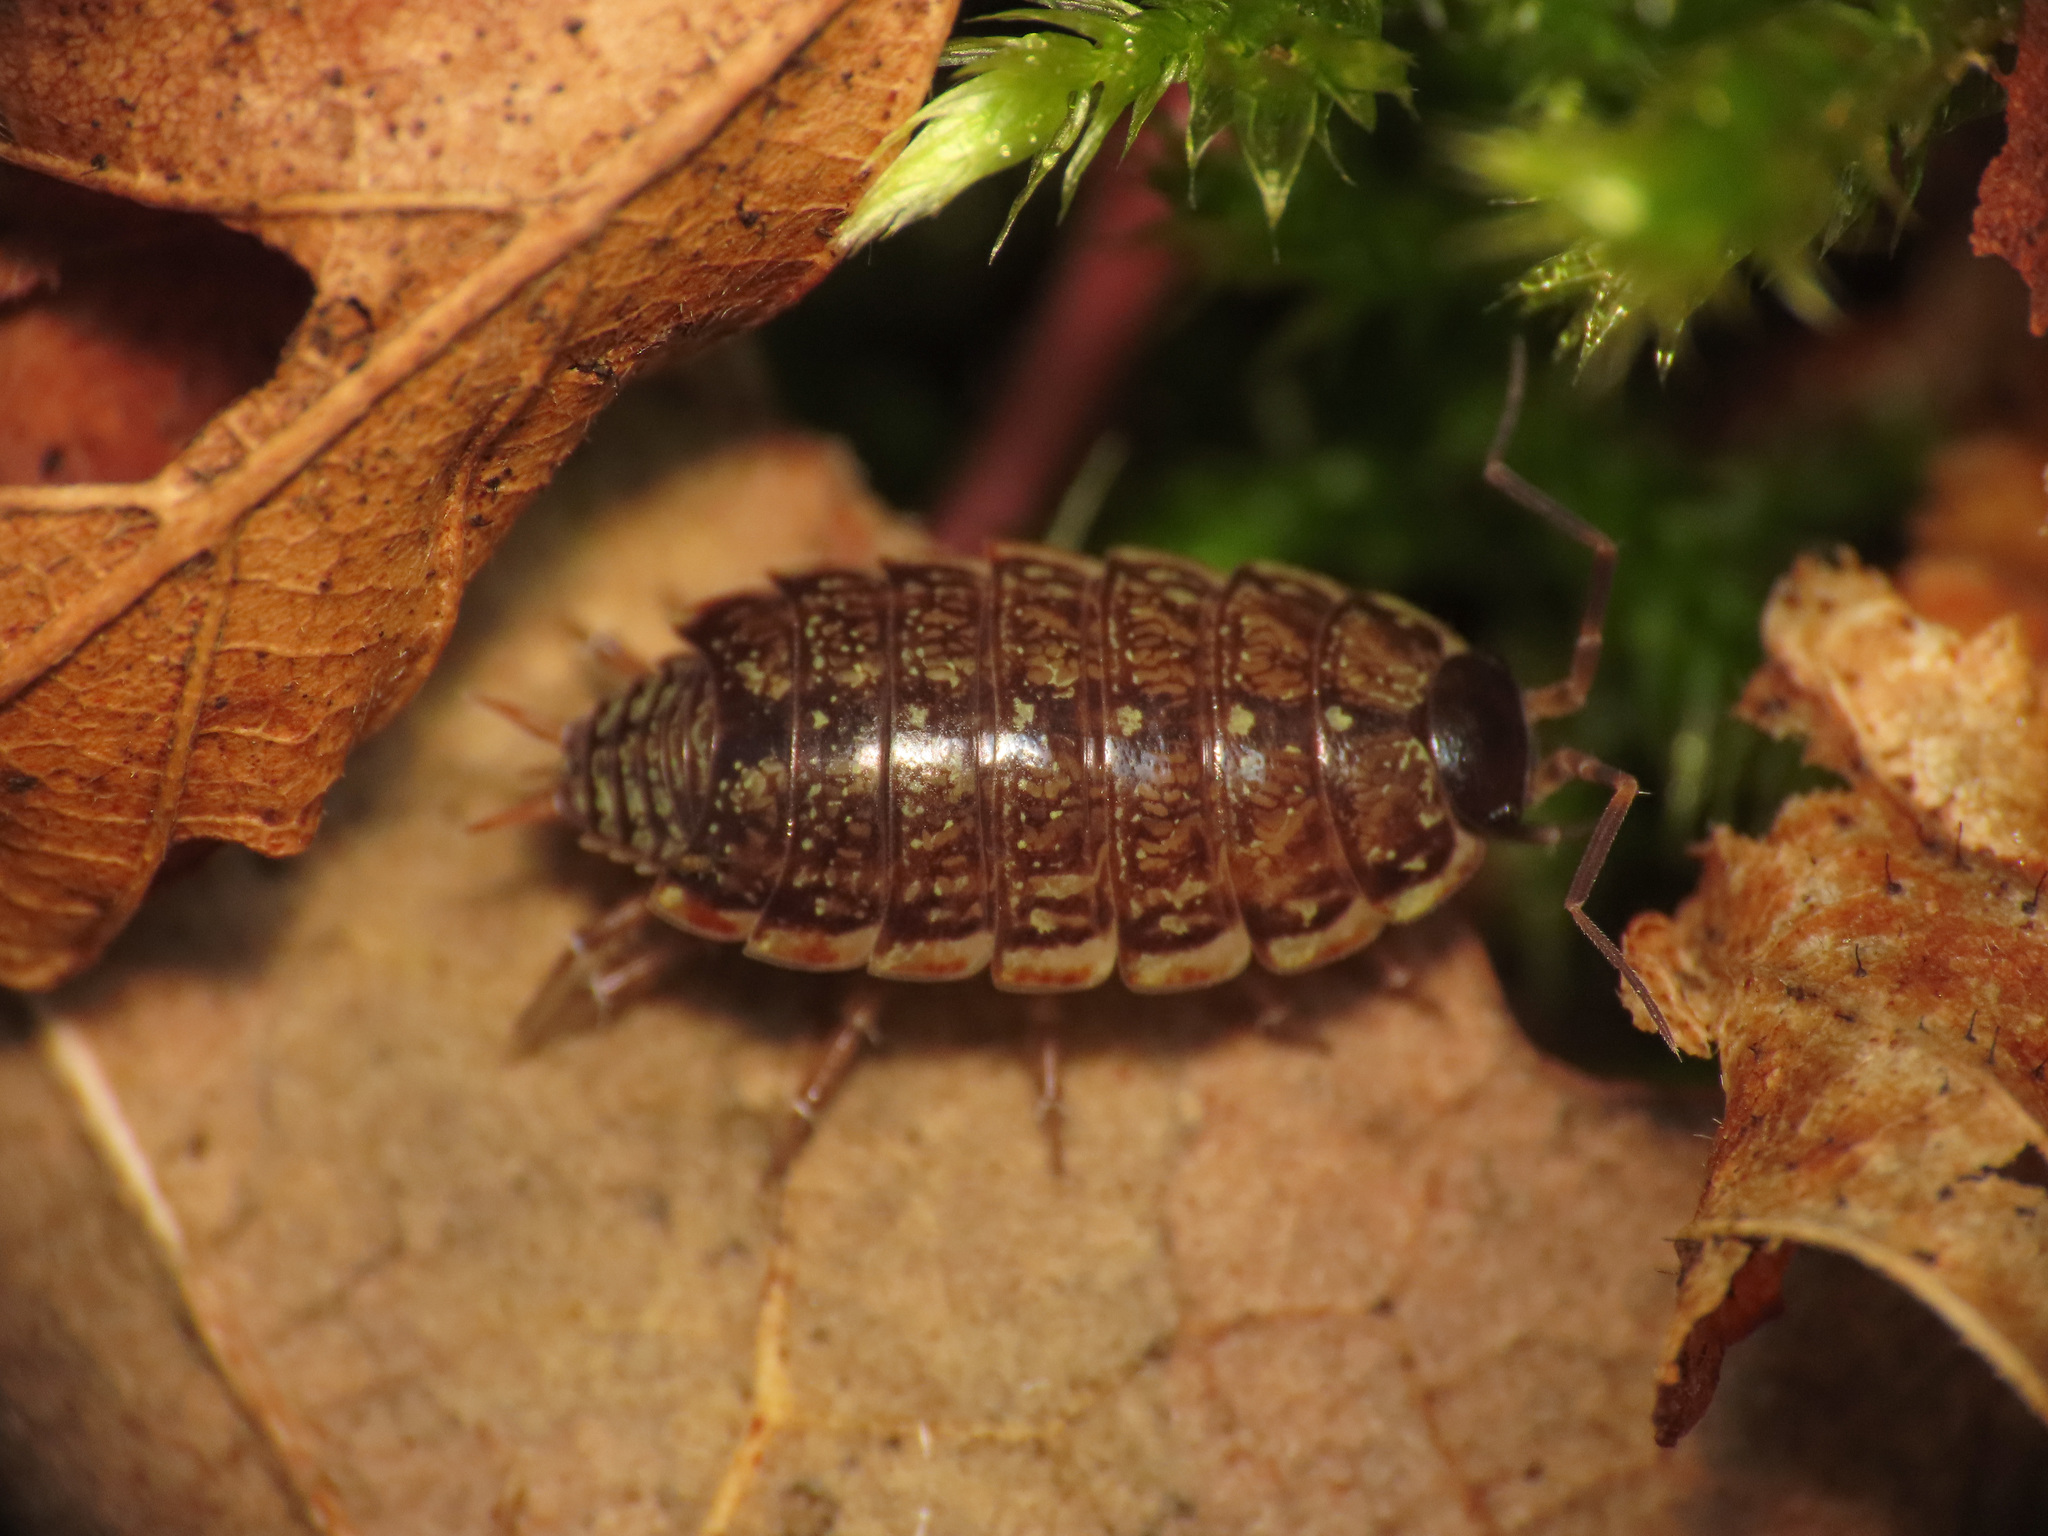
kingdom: Animalia
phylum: Arthropoda
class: Malacostraca
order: Isopoda
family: Philosciidae
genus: Philoscia
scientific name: Philoscia muscorum
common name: Common striped woodlouse
